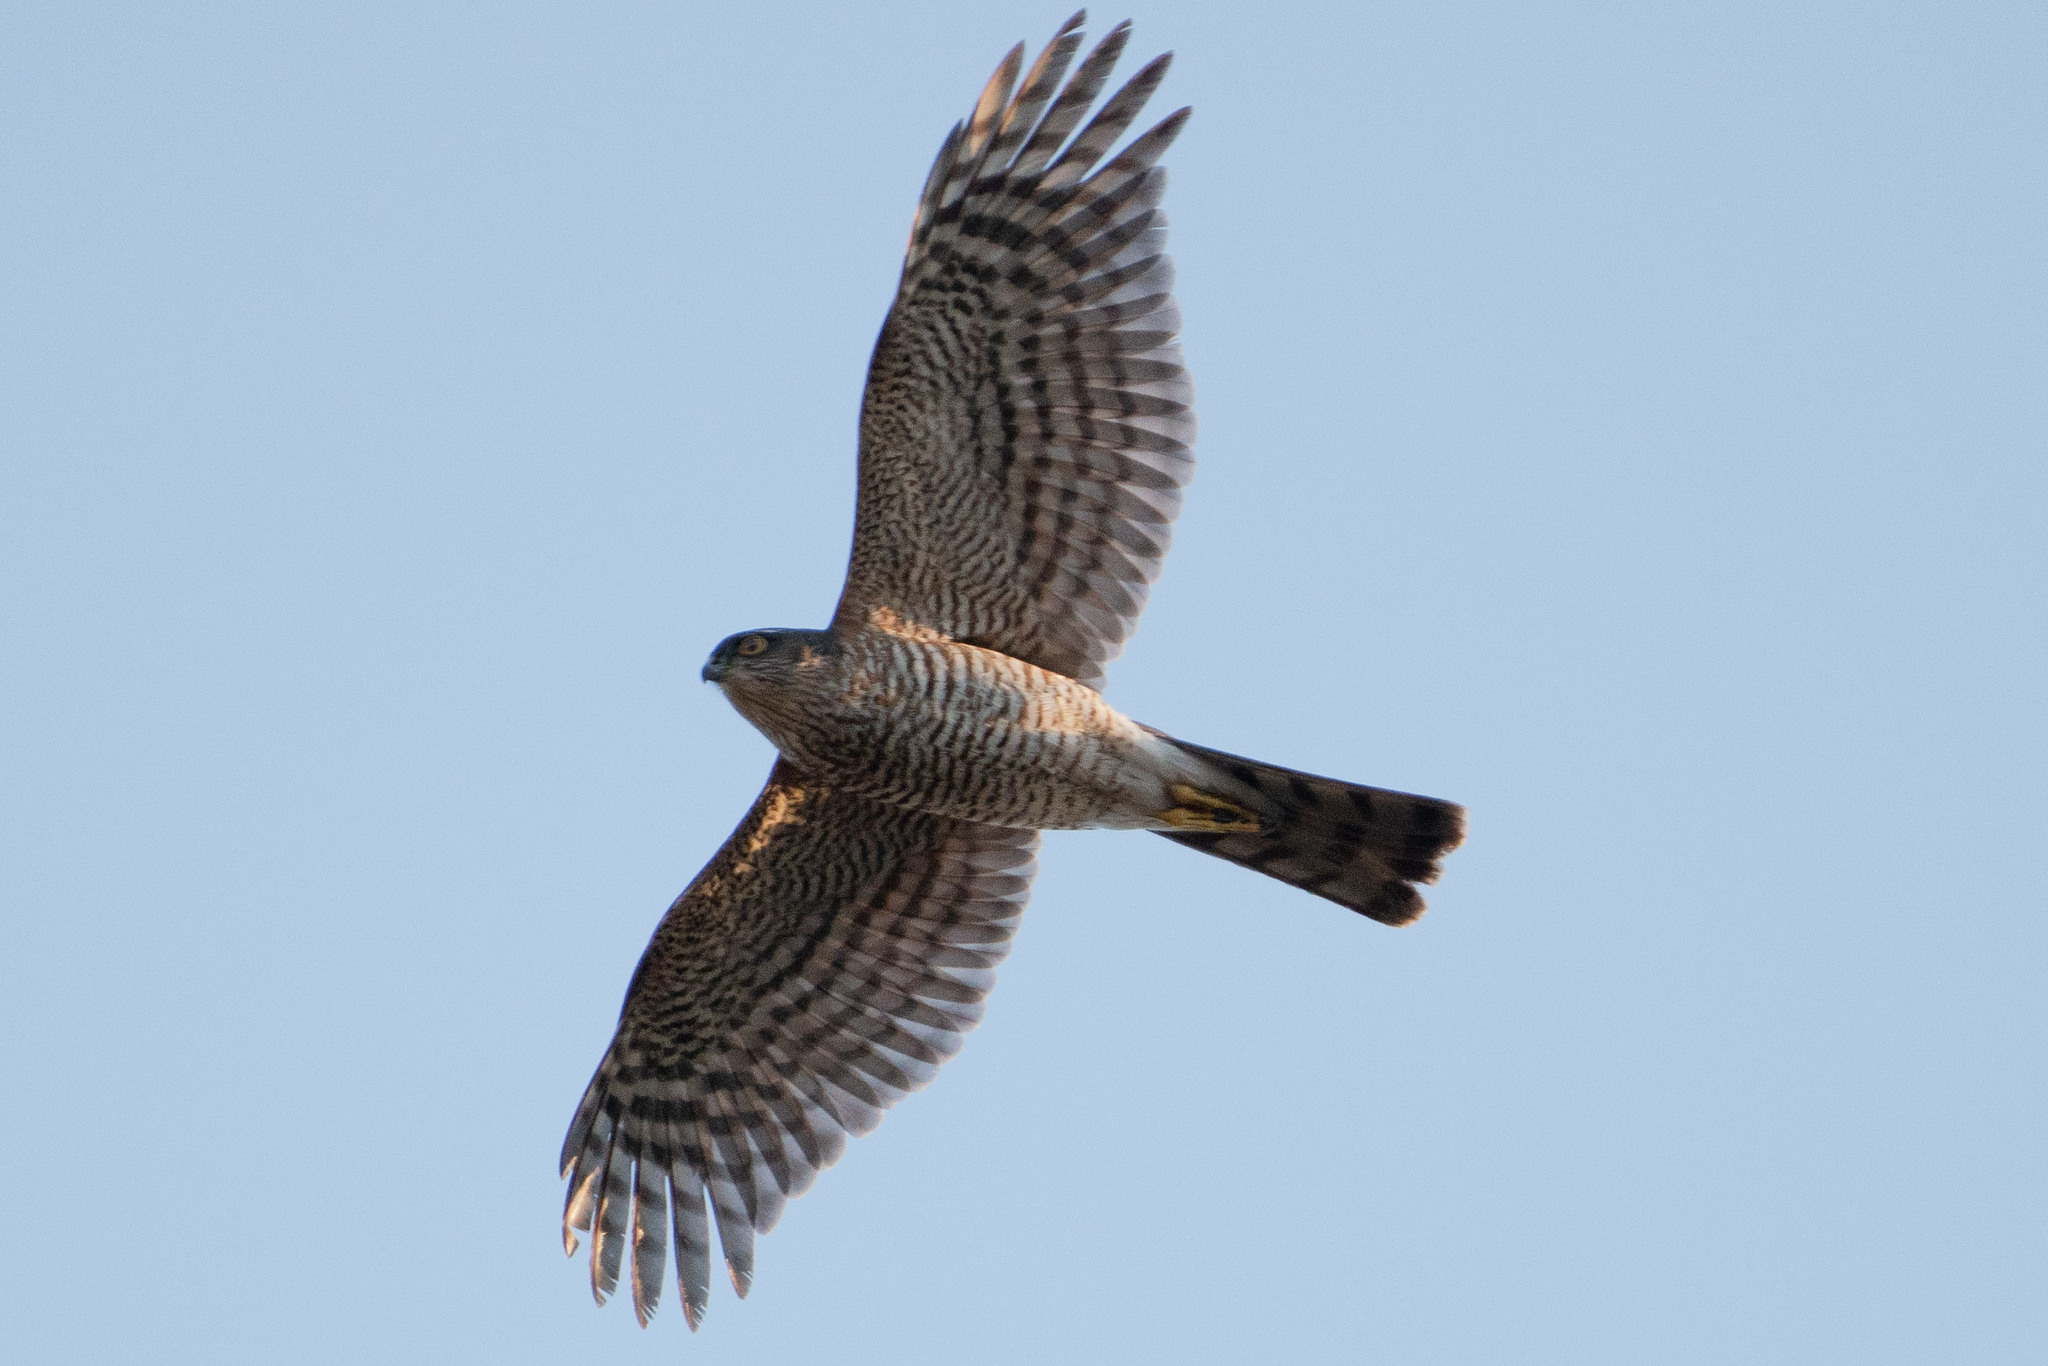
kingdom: Animalia
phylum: Chordata
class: Aves
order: Accipitriformes
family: Accipitridae
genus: Accipiter
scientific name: Accipiter nisus
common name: Eurasian sparrowhawk
